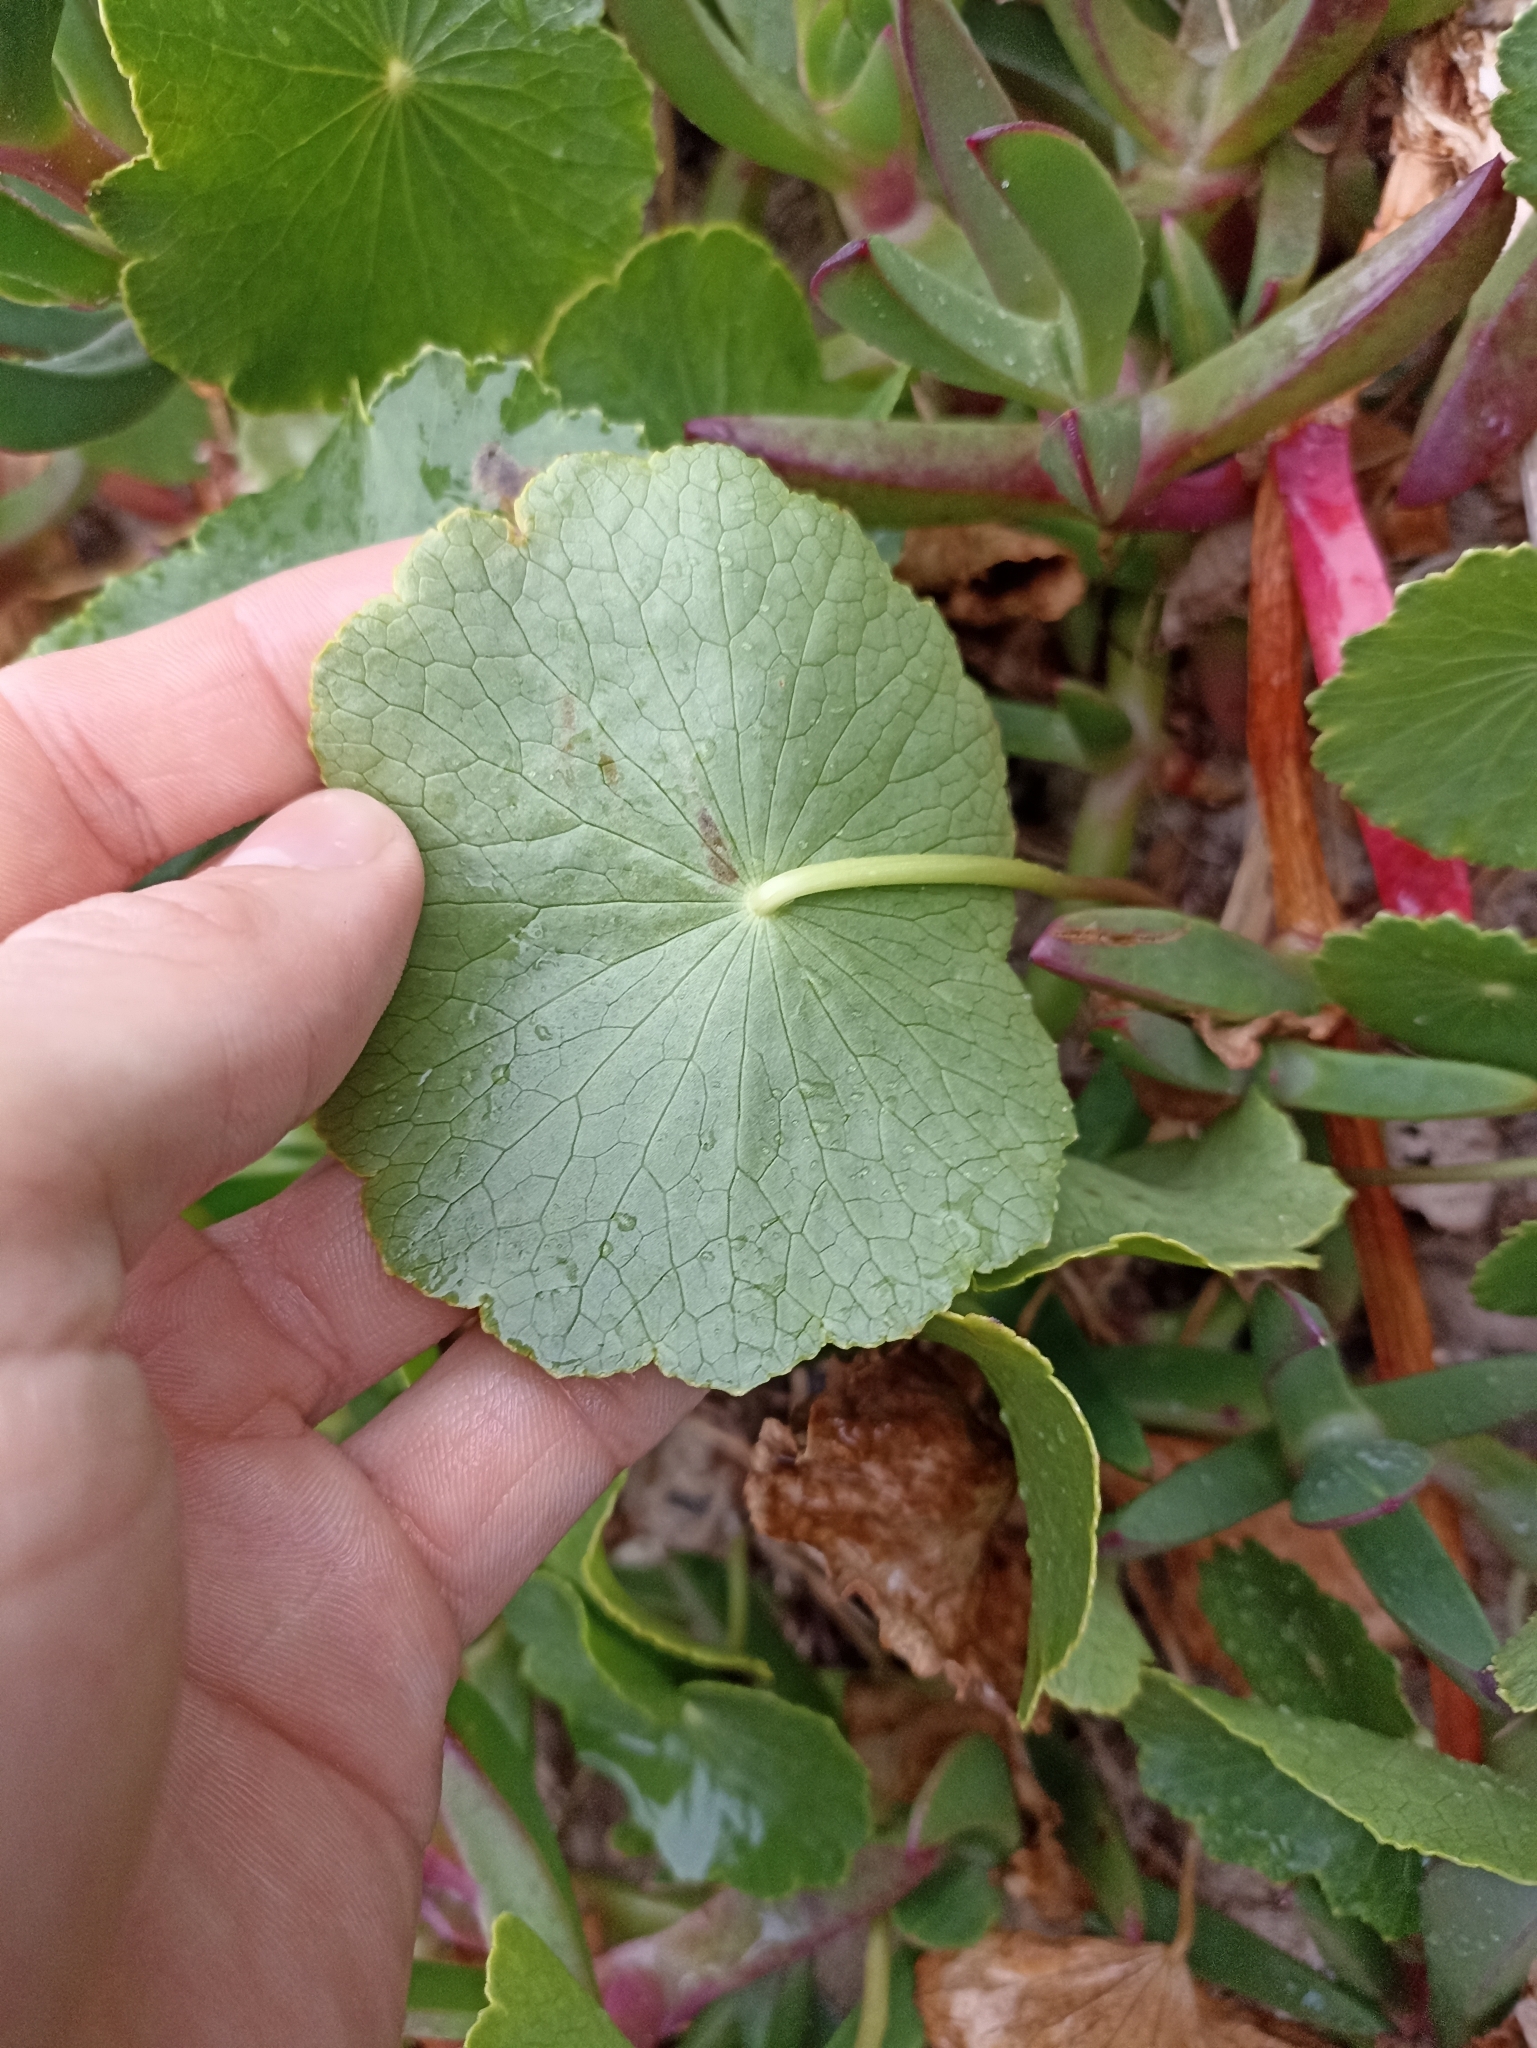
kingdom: Plantae
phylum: Tracheophyta
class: Magnoliopsida
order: Apiales
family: Araliaceae
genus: Hydrocotyle
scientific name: Hydrocotyle bonariensis
